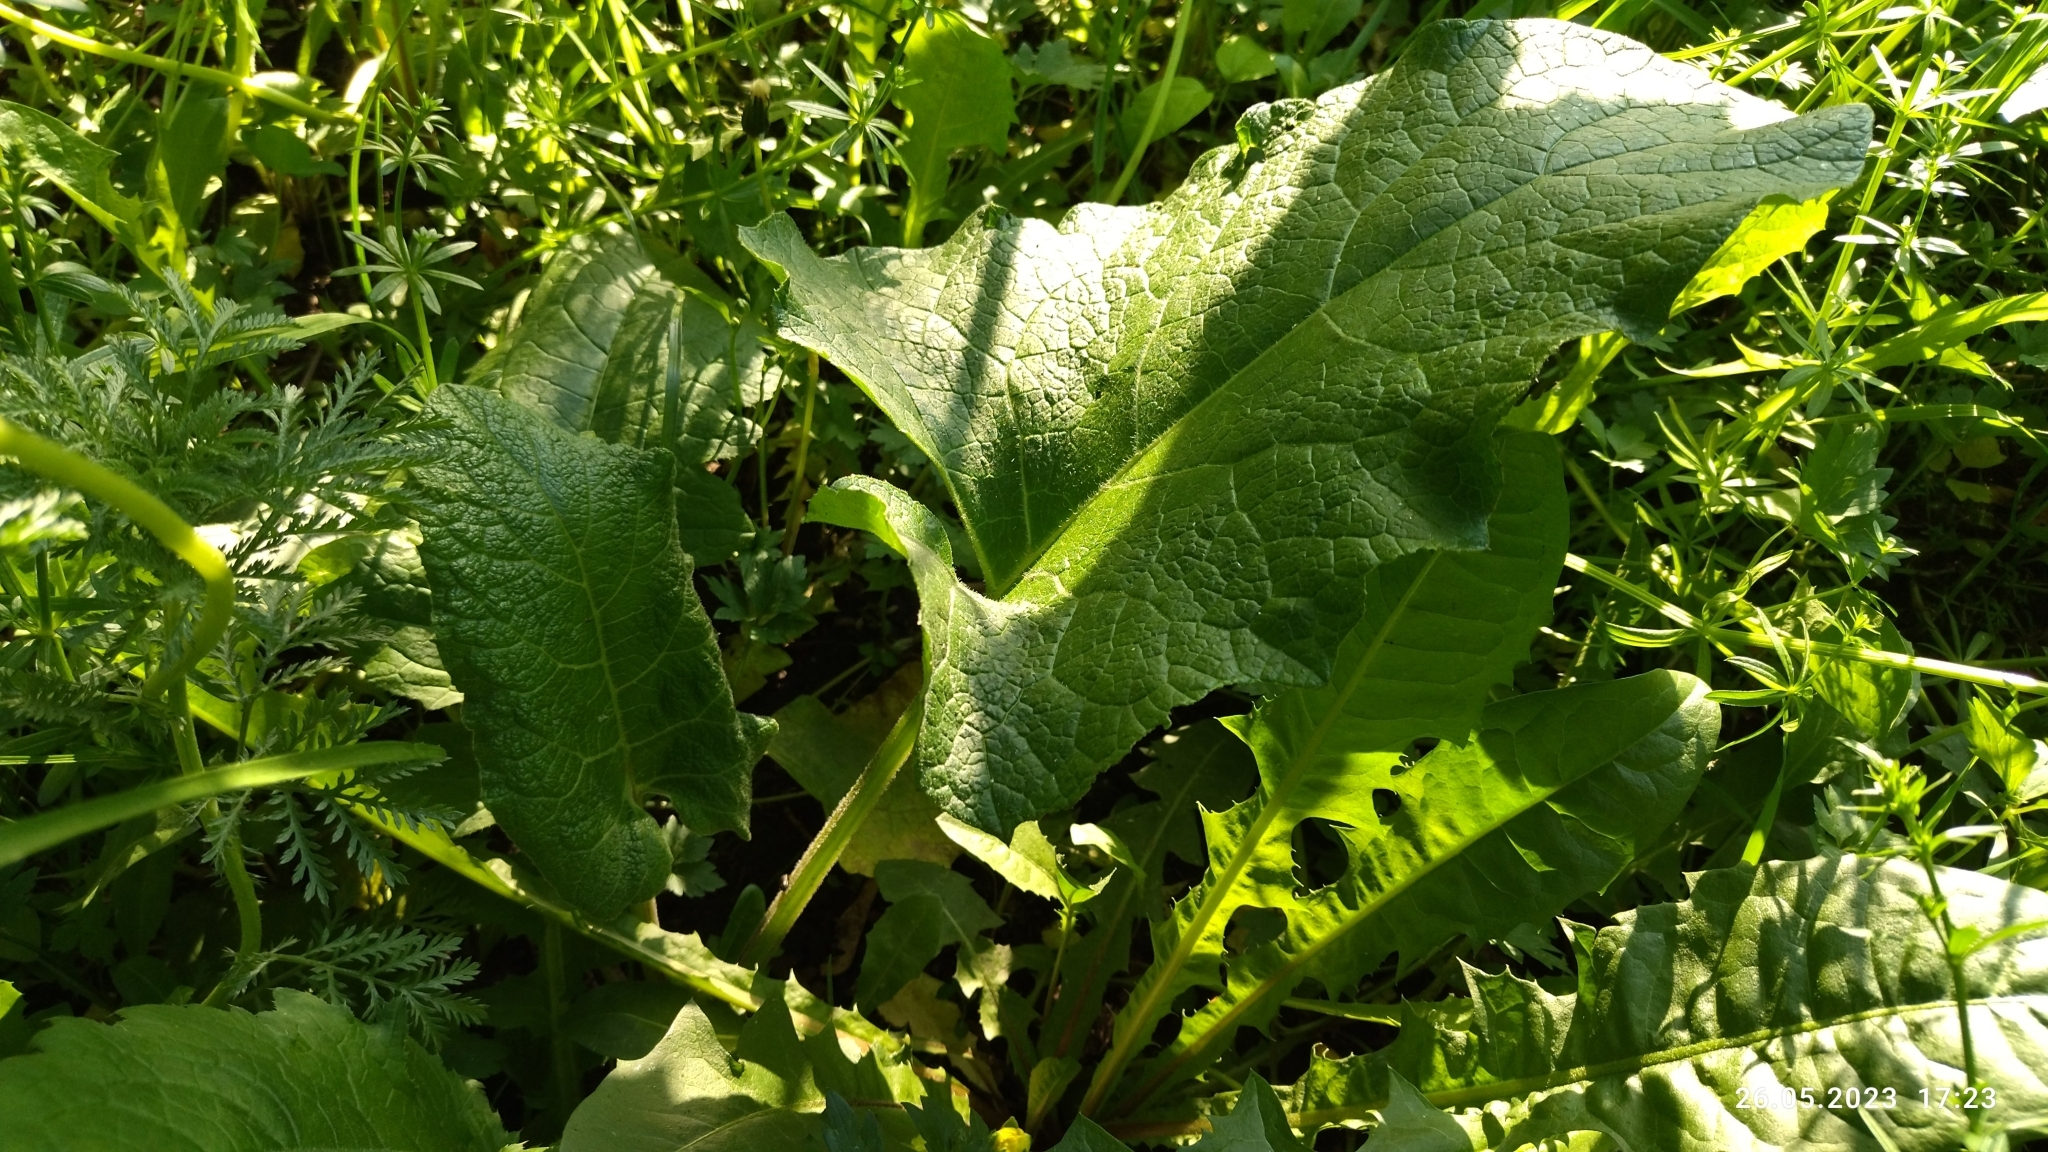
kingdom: Plantae
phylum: Tracheophyta
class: Magnoliopsida
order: Asterales
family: Asteraceae
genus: Arctium
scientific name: Arctium
